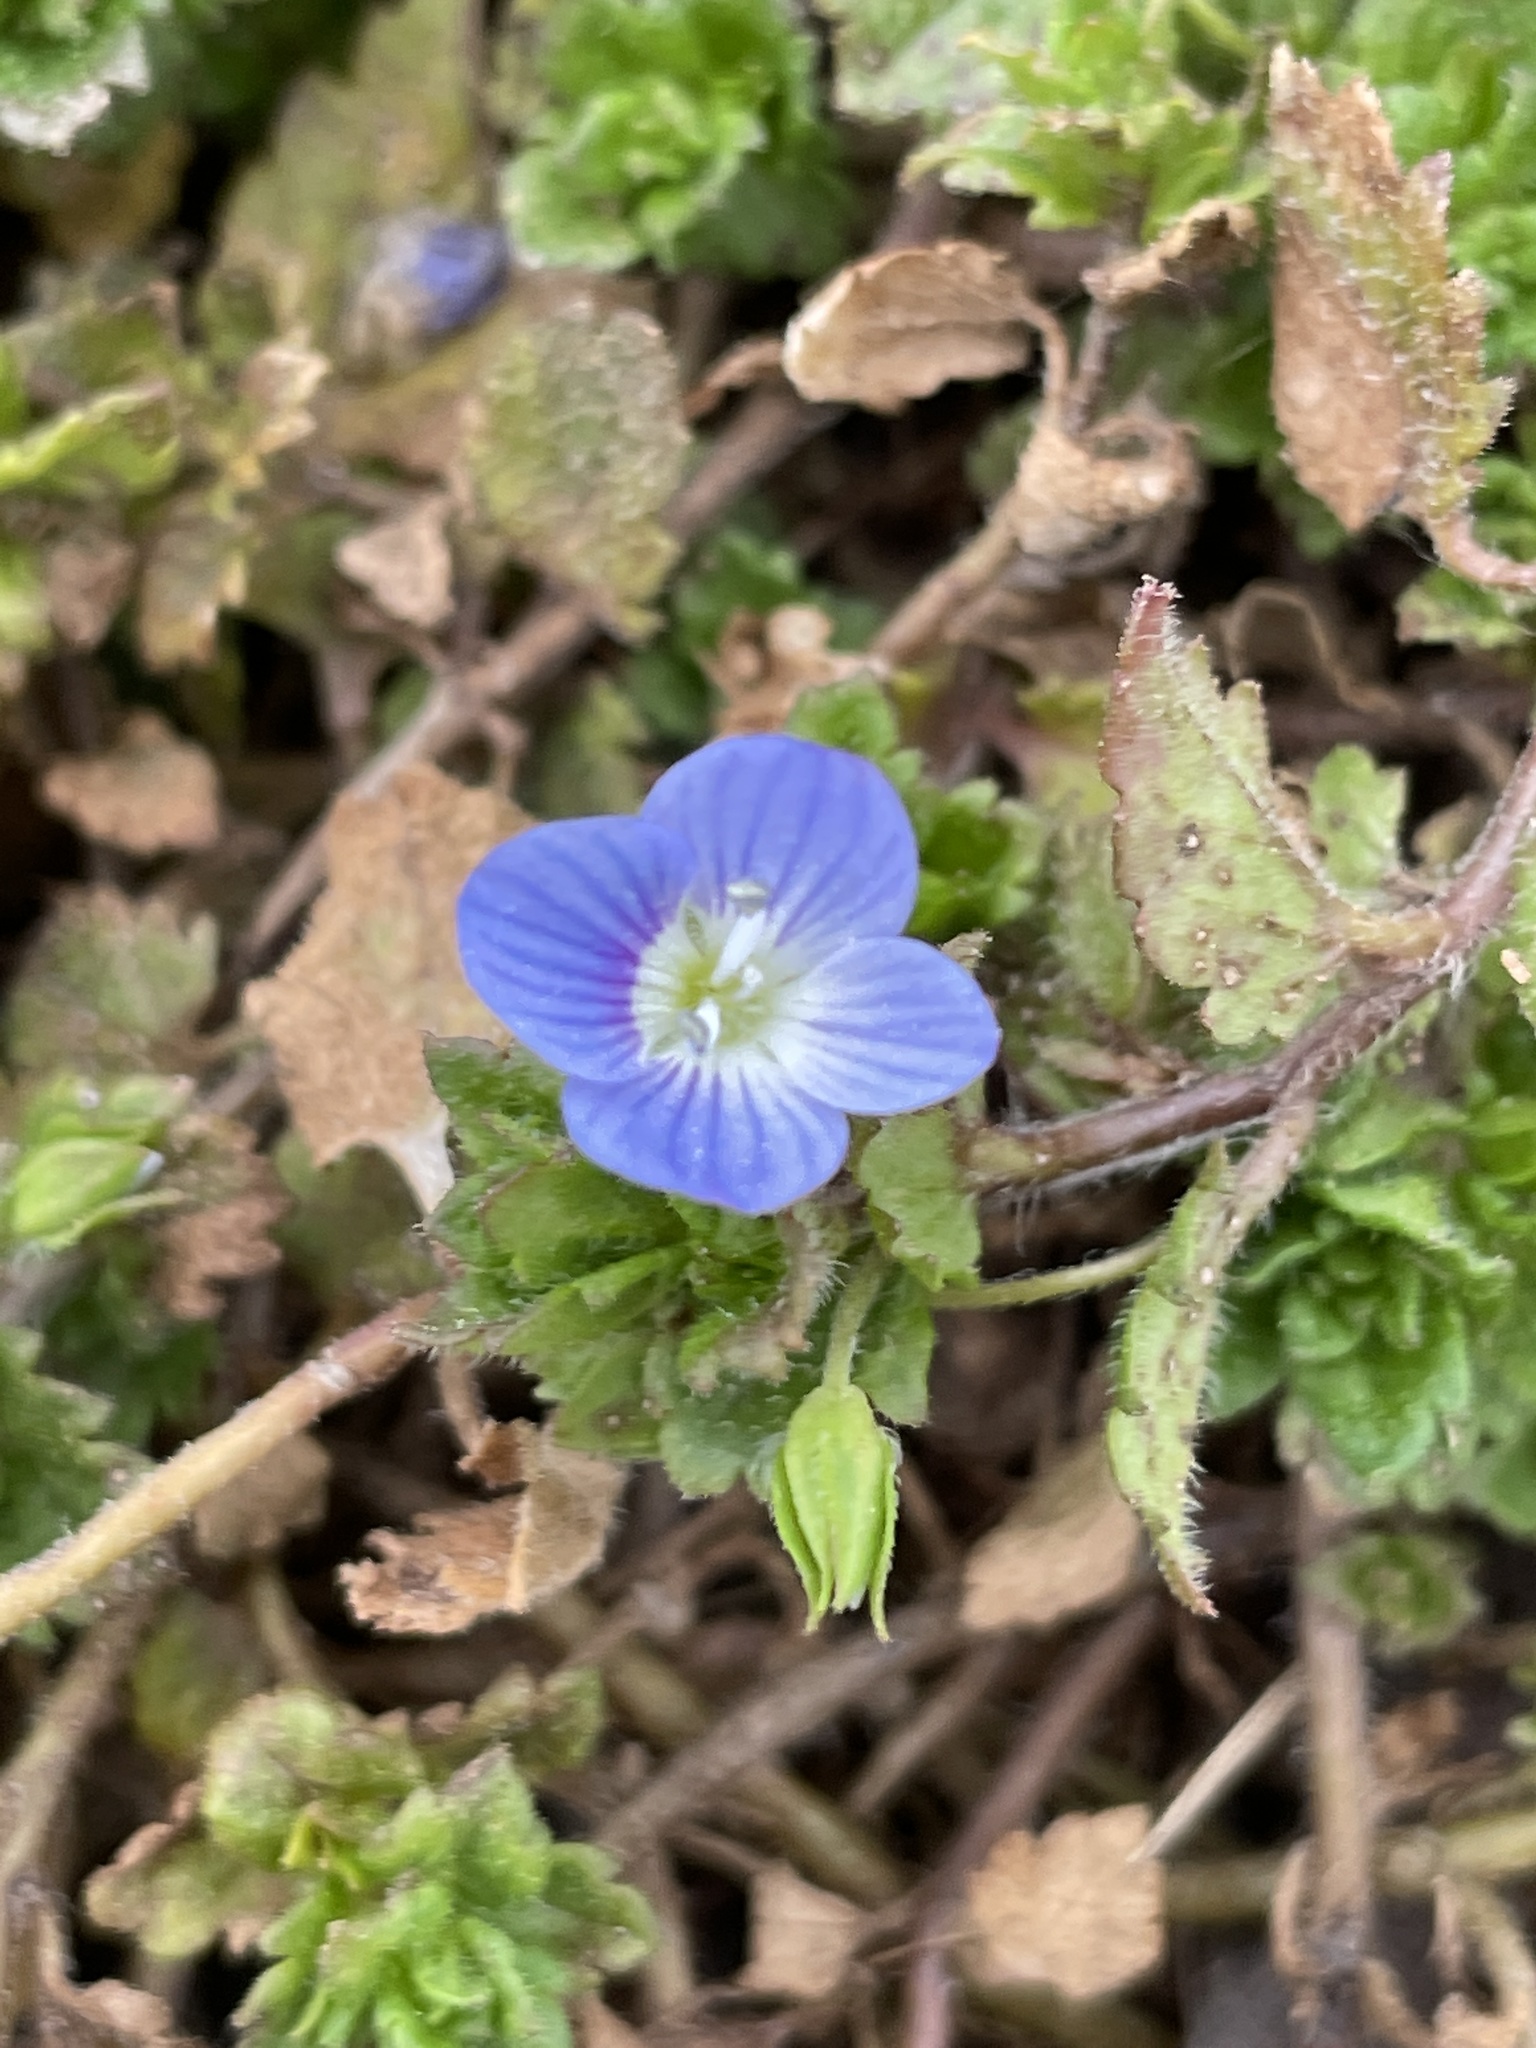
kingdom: Plantae
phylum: Tracheophyta
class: Magnoliopsida
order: Lamiales
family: Plantaginaceae
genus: Veronica
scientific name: Veronica persica
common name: Common field-speedwell
